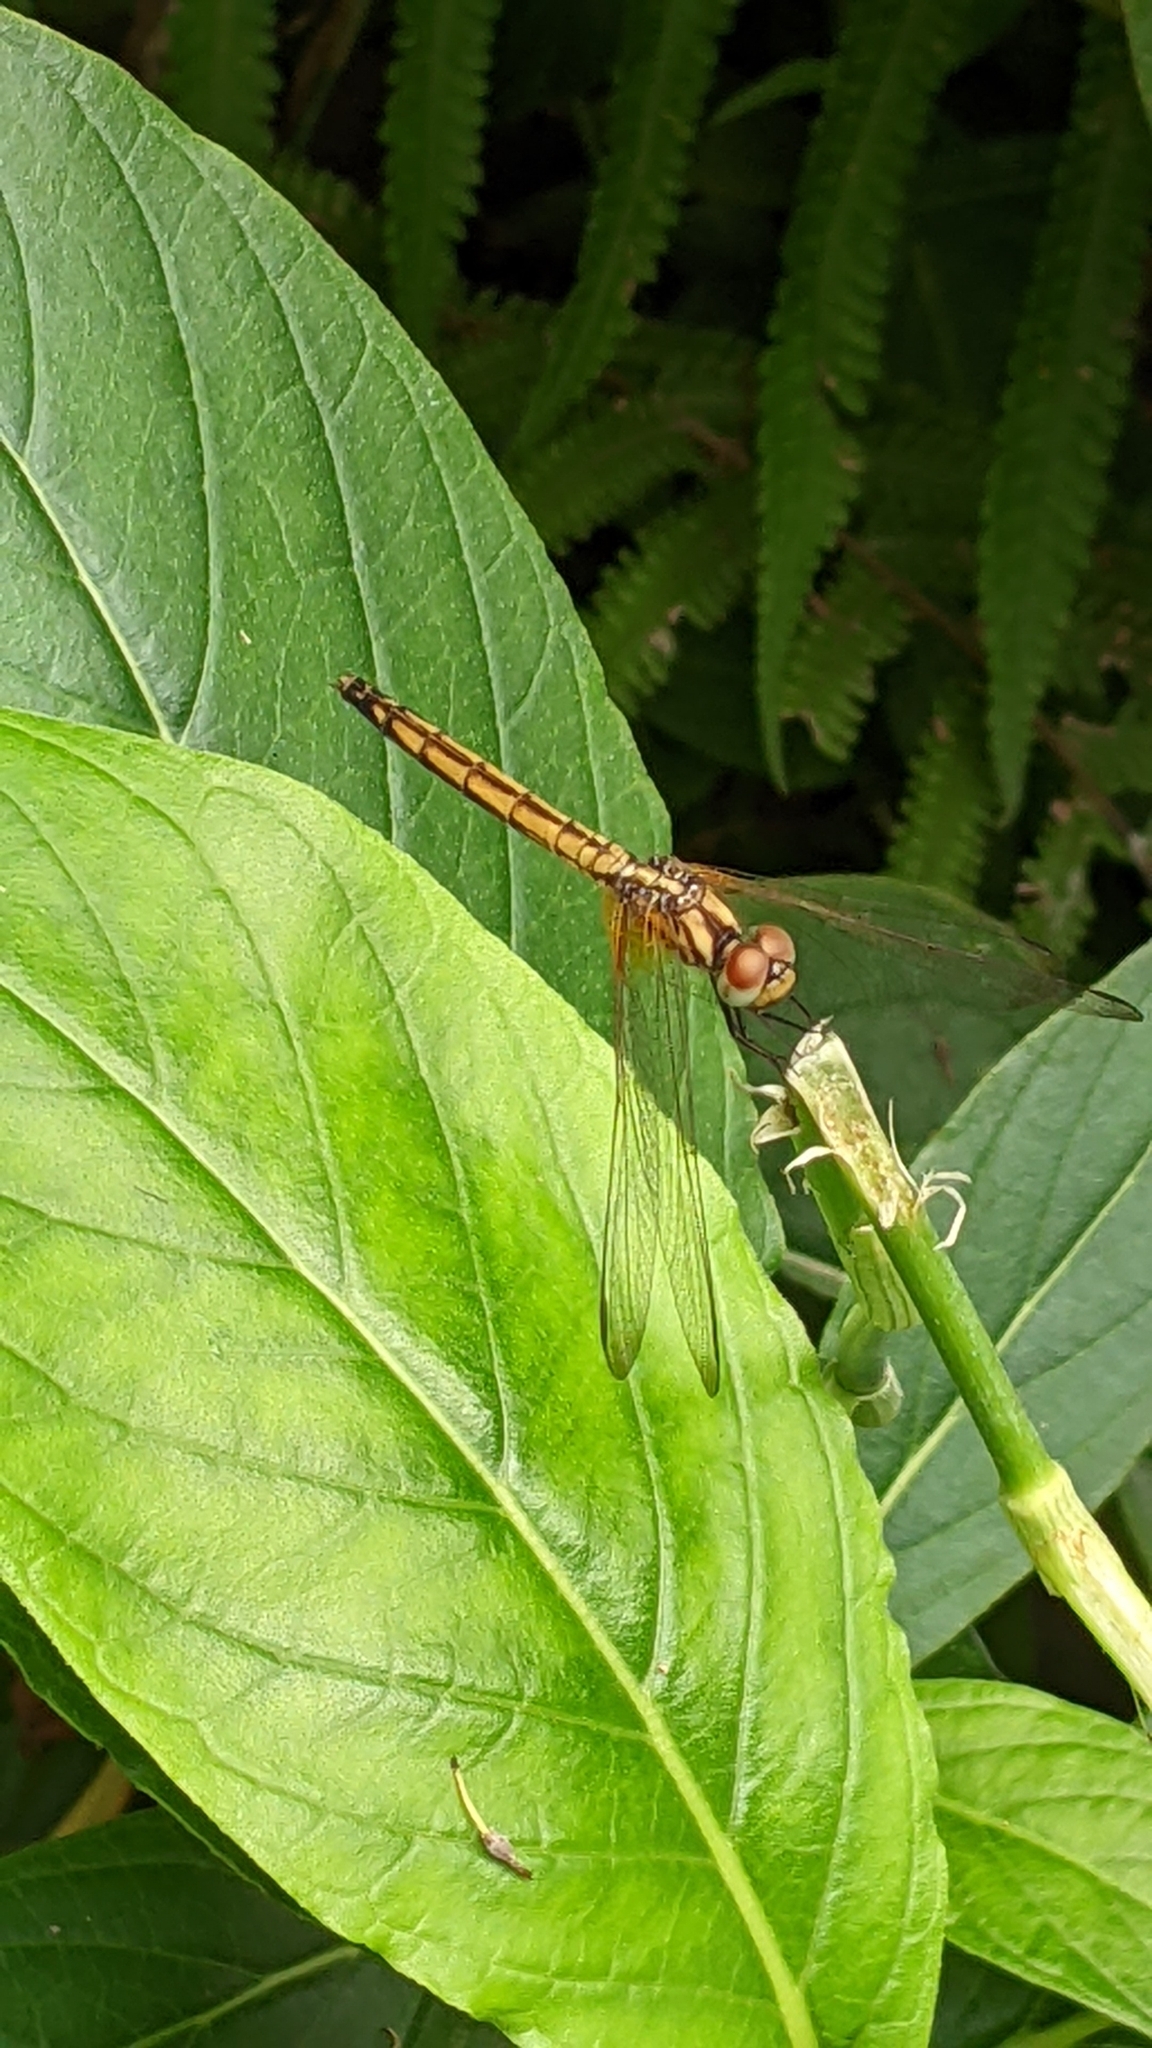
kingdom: Animalia
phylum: Arthropoda
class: Insecta
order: Odonata
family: Libellulidae
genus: Trithemis
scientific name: Trithemis aurora
